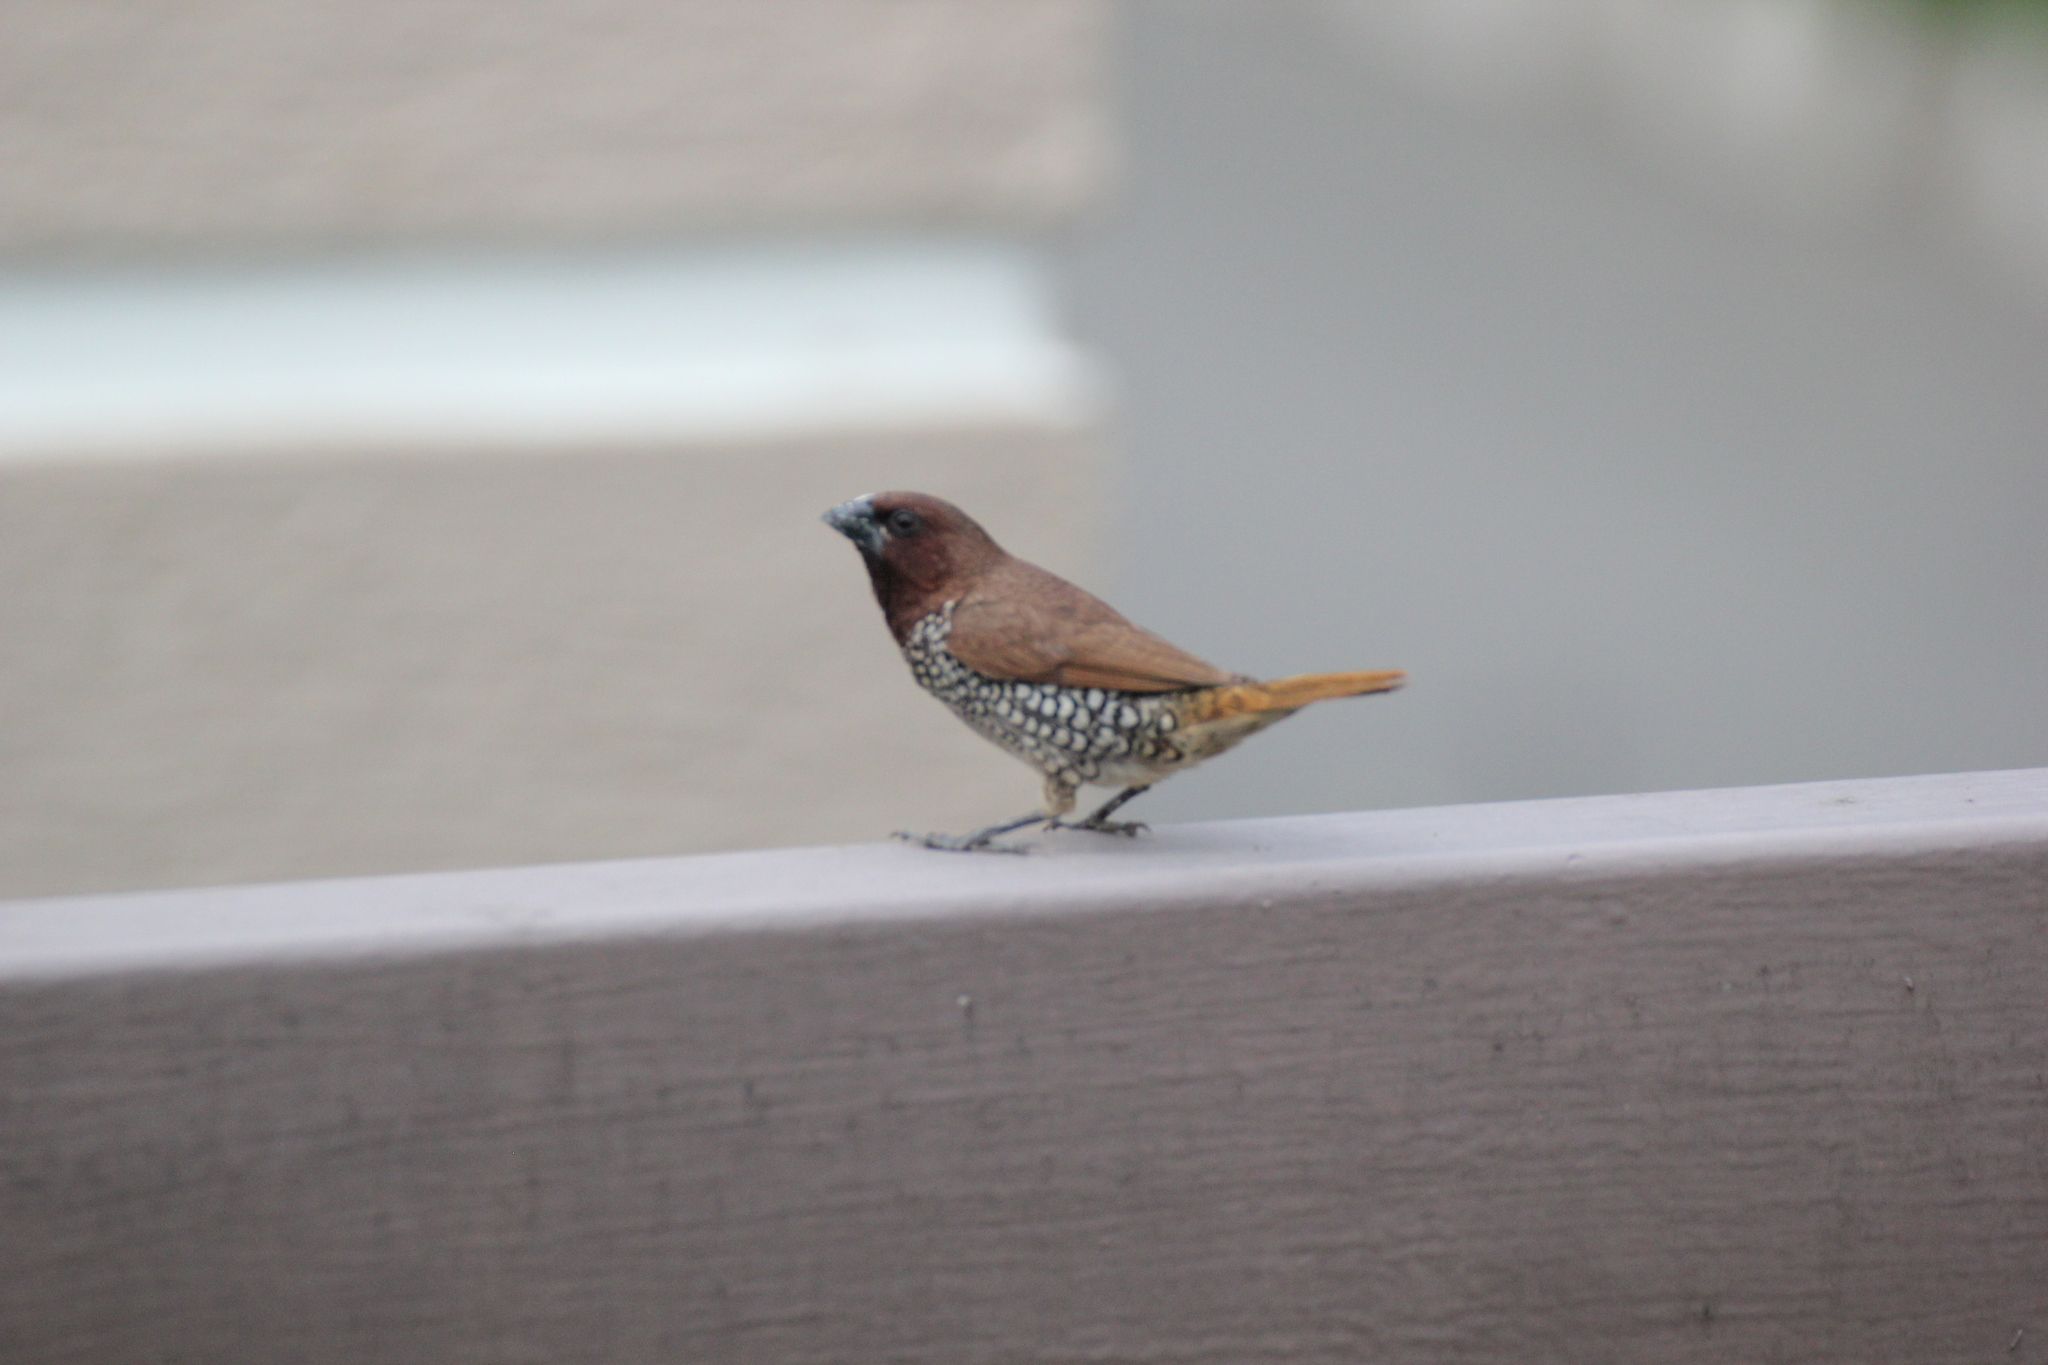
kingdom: Animalia
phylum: Chordata
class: Aves
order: Passeriformes
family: Estrildidae
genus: Lonchura
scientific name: Lonchura punctulata
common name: Scaly-breasted munia
